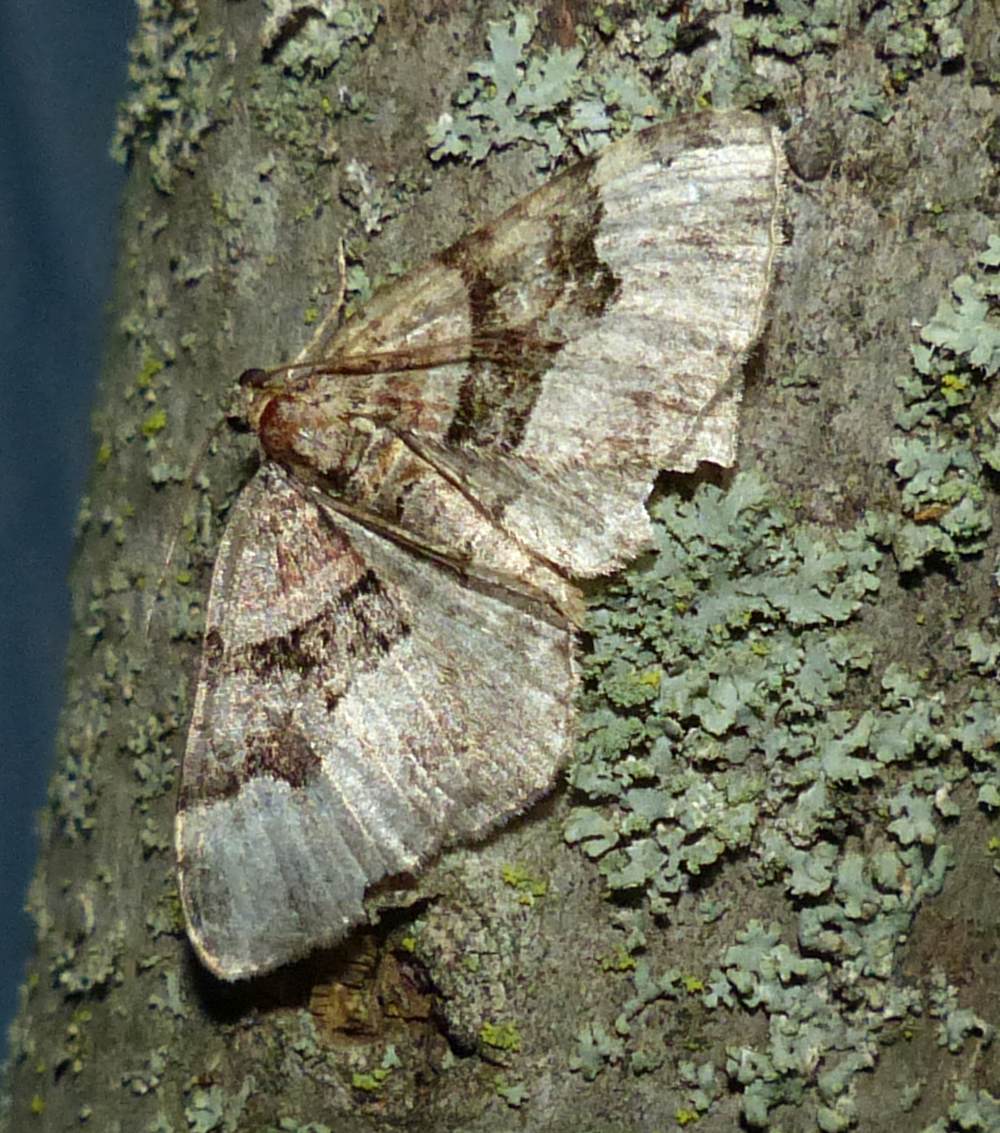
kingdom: Animalia
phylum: Arthropoda
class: Insecta
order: Lepidoptera
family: Geometridae
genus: Xanthorhoe
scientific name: Xanthorhoe lacustrata
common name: Toothed brown carpet
